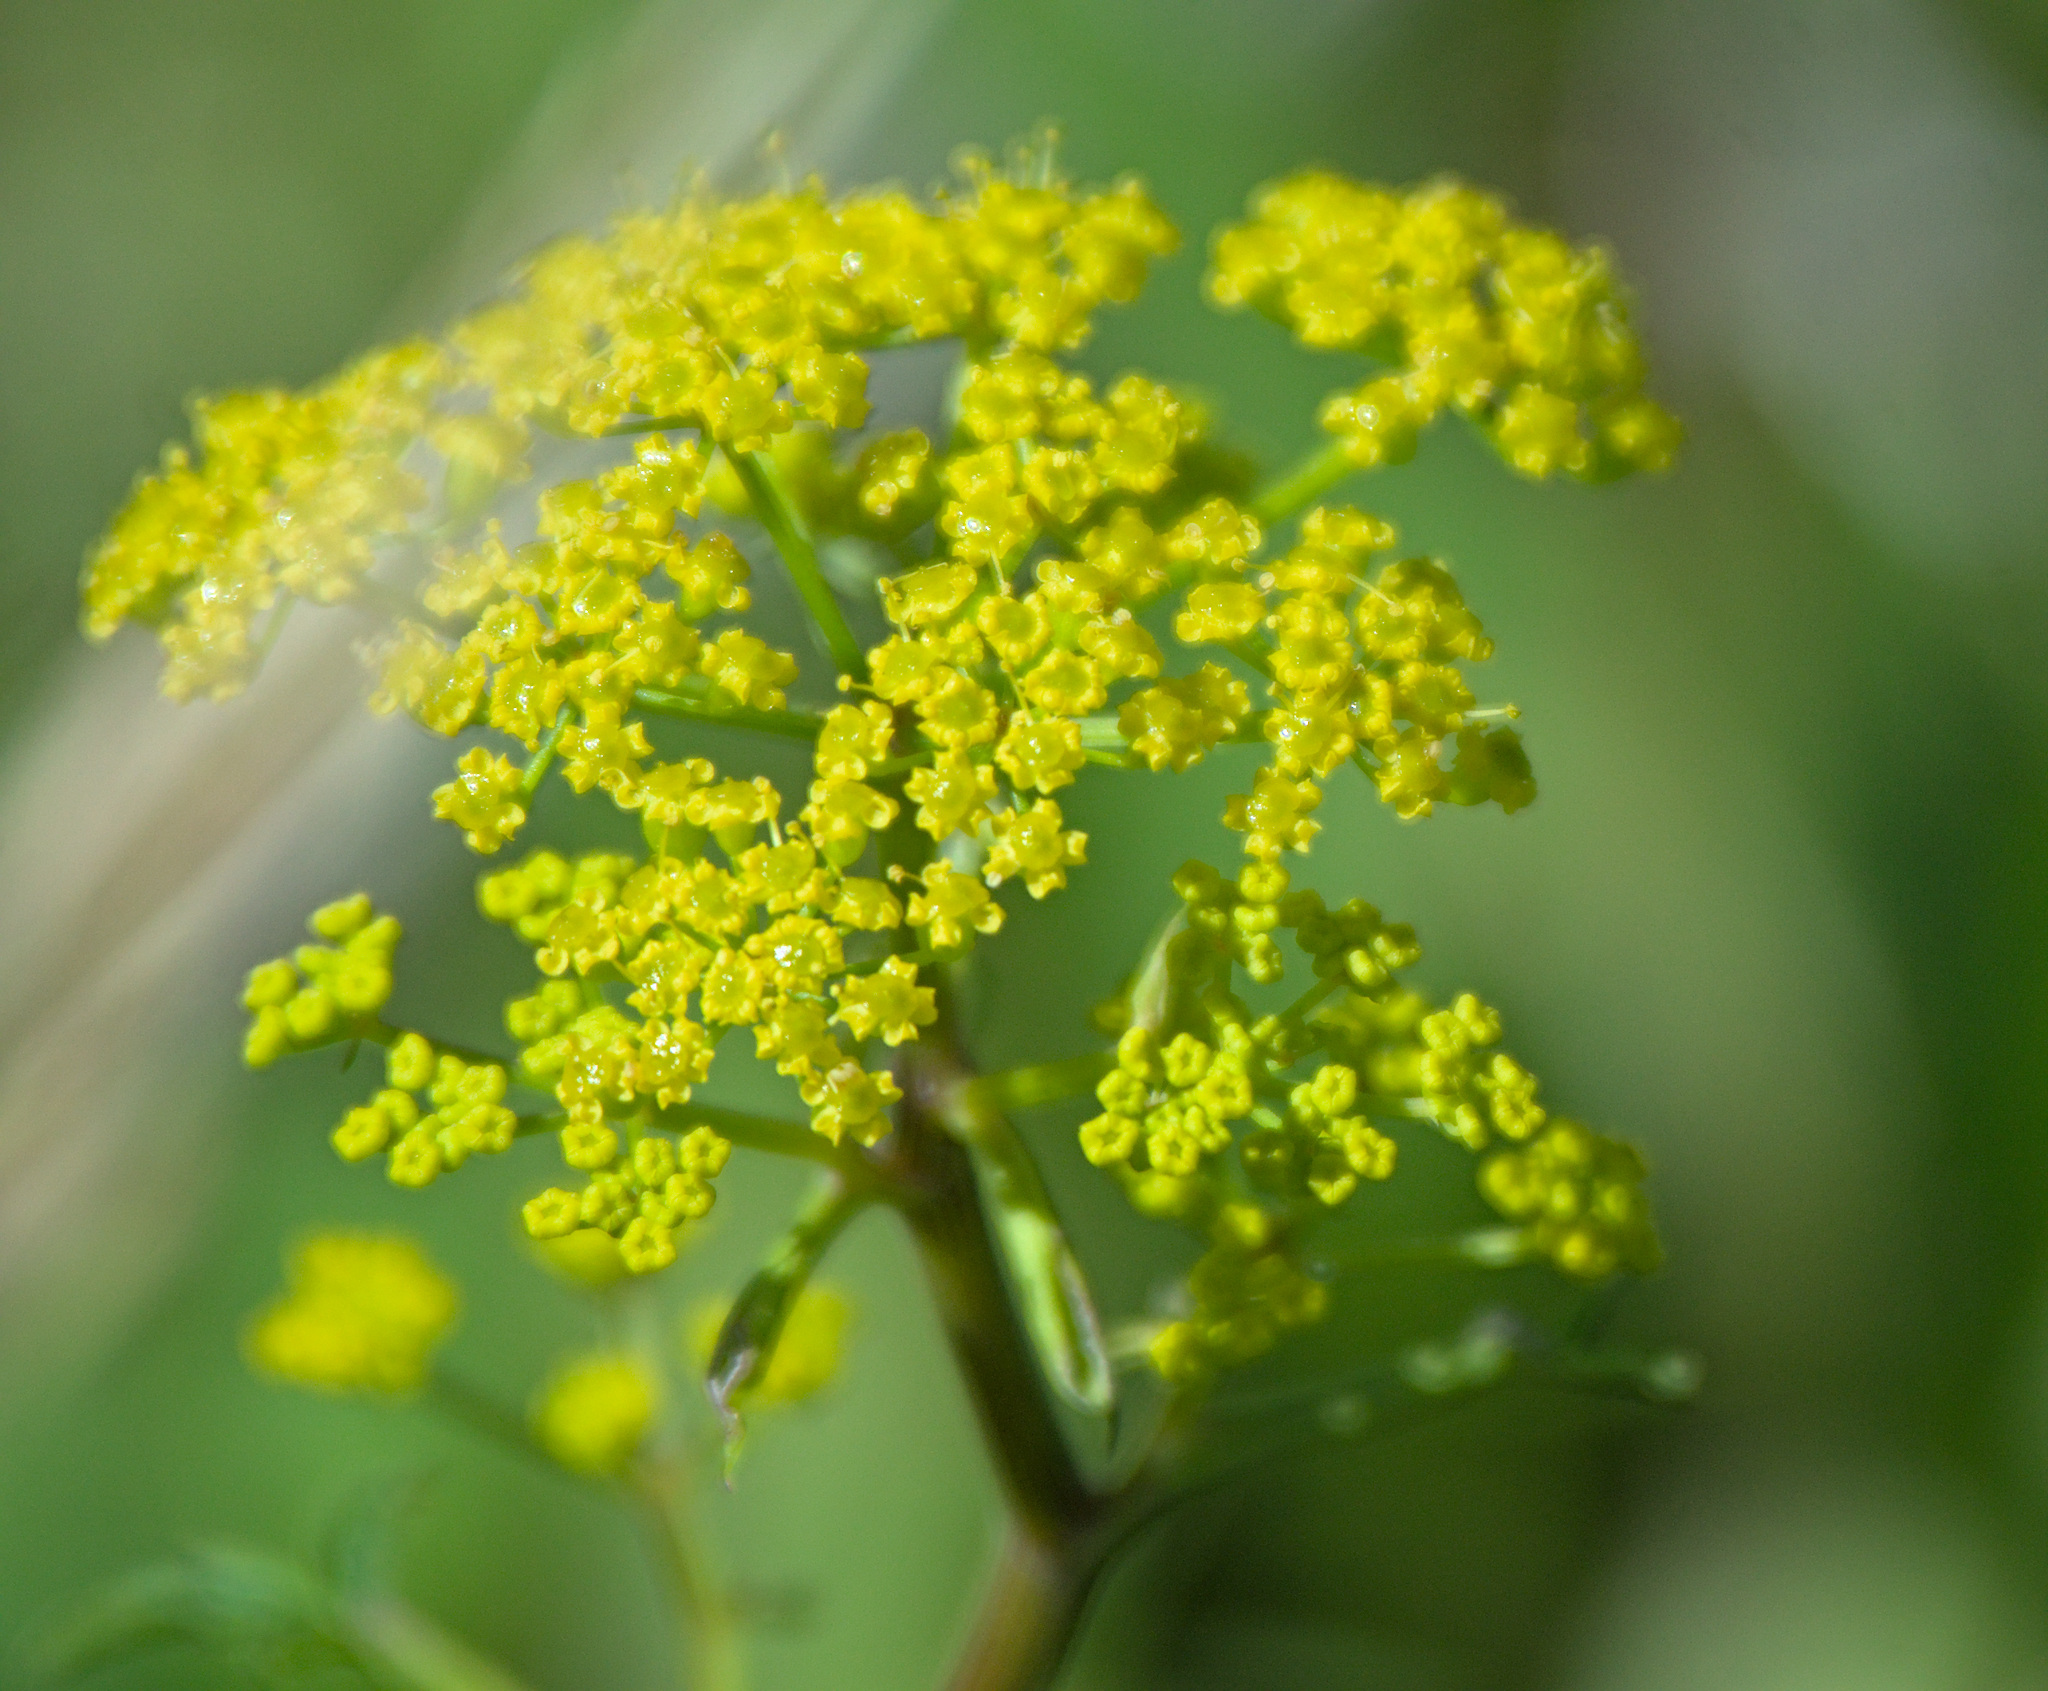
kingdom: Plantae
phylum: Tracheophyta
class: Magnoliopsida
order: Apiales
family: Apiaceae
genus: Pastinaca
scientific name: Pastinaca sativa
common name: Wild parsnip
